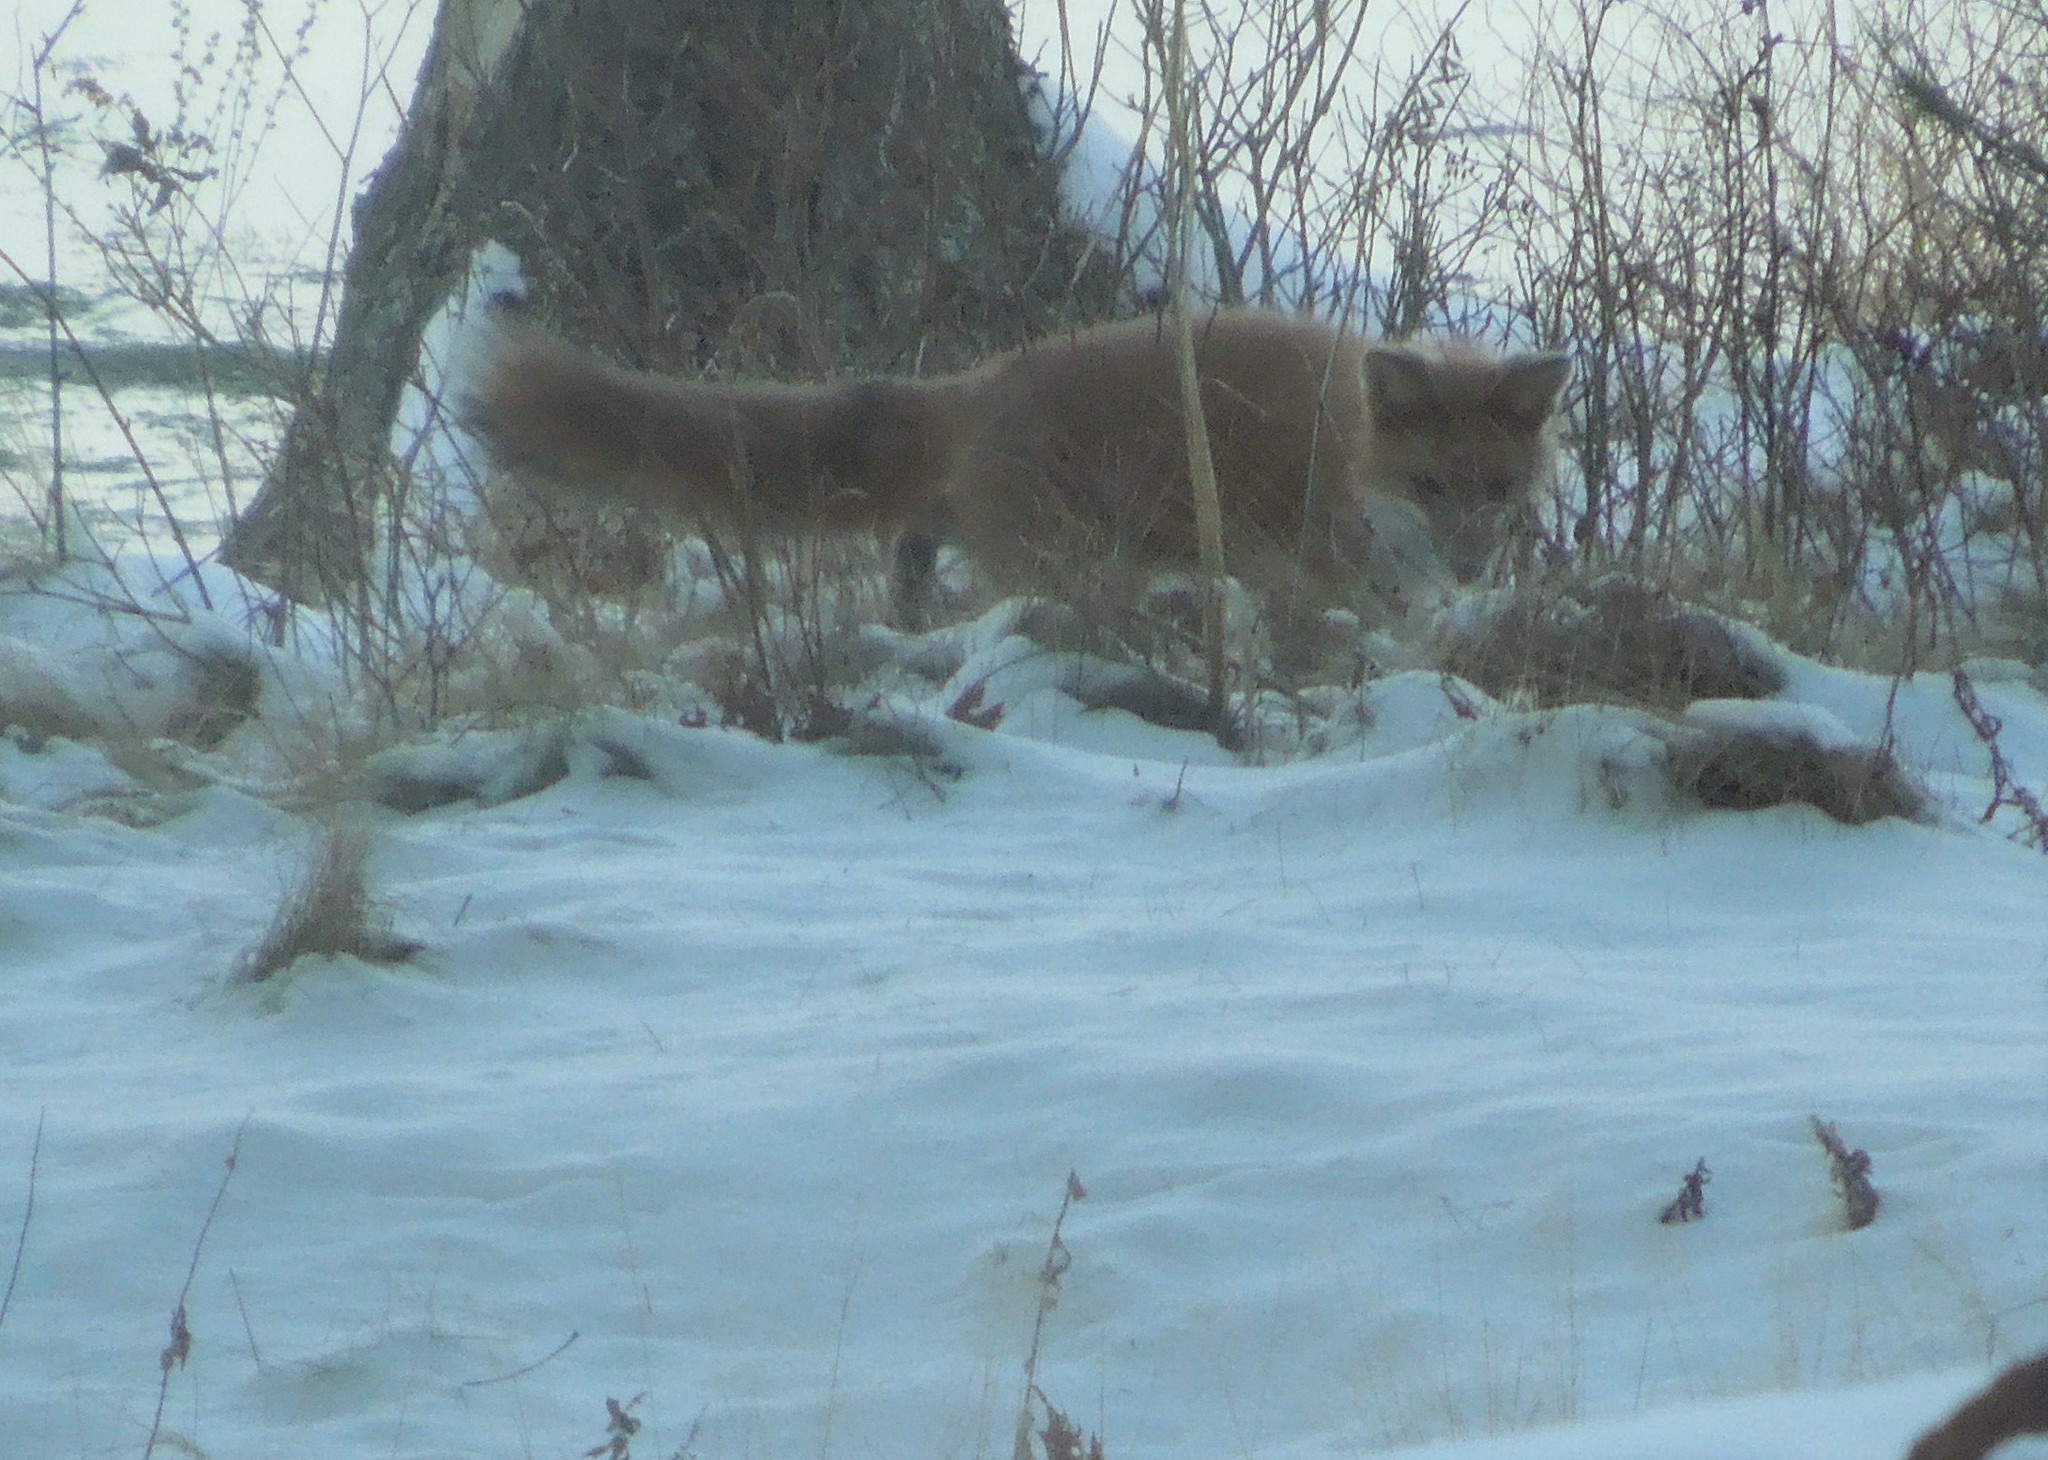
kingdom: Animalia
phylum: Chordata
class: Mammalia
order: Carnivora
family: Canidae
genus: Vulpes
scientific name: Vulpes vulpes
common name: Red fox
